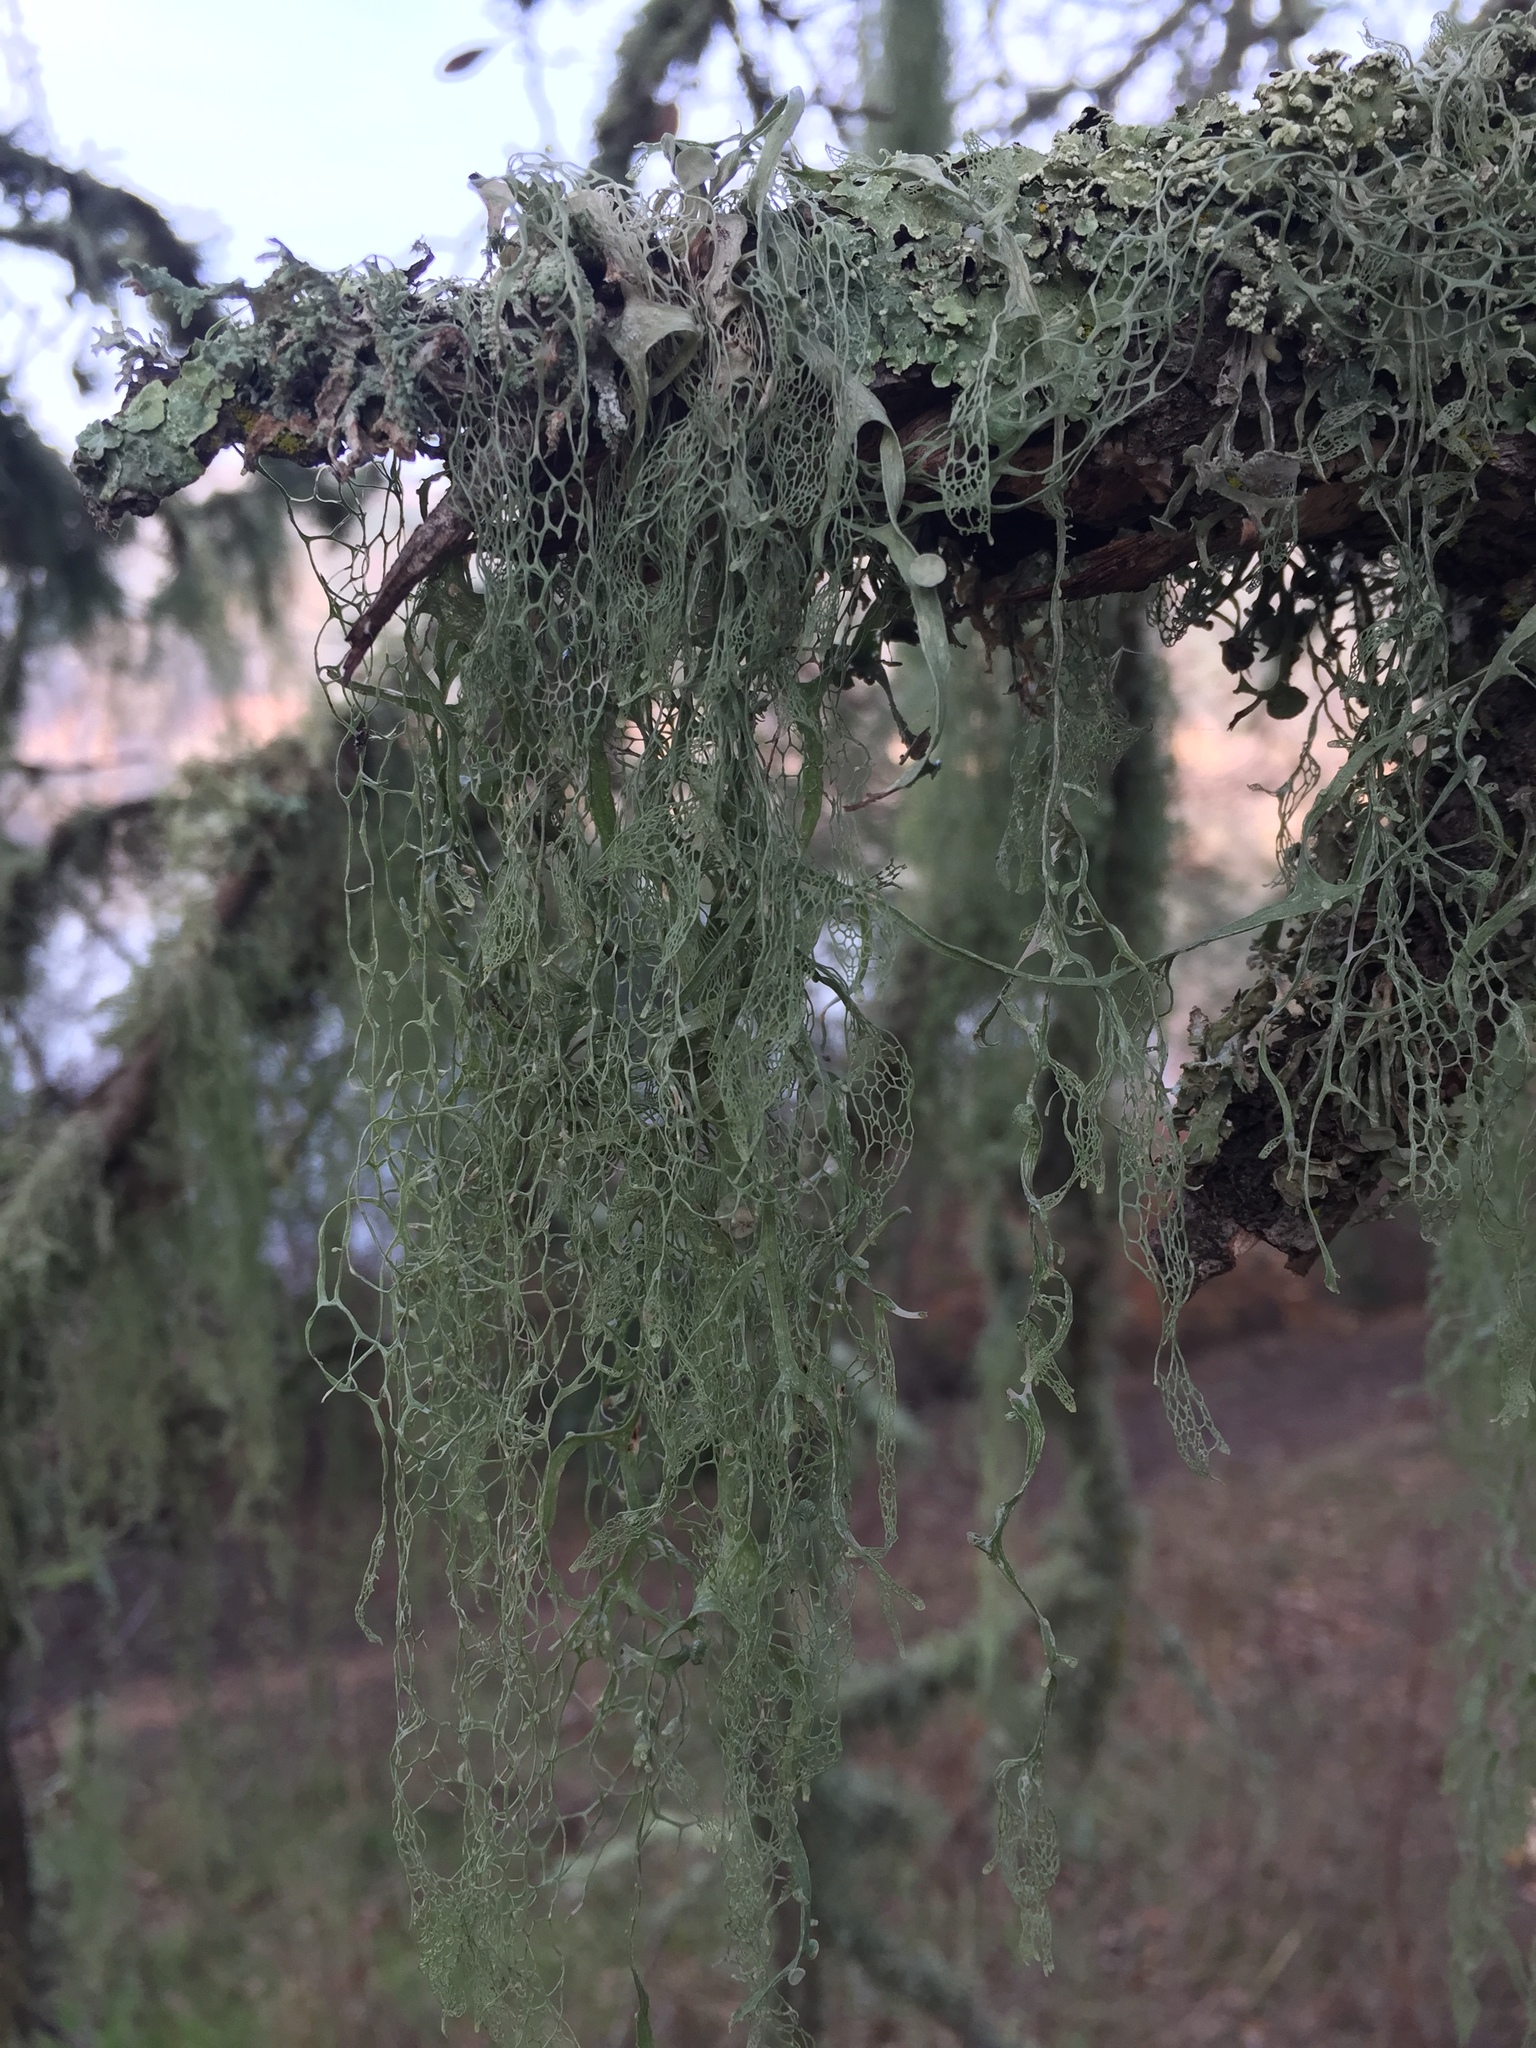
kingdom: Fungi
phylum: Ascomycota
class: Lecanoromycetes
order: Lecanorales
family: Ramalinaceae
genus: Ramalina
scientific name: Ramalina menziesii
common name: Lace lichen
